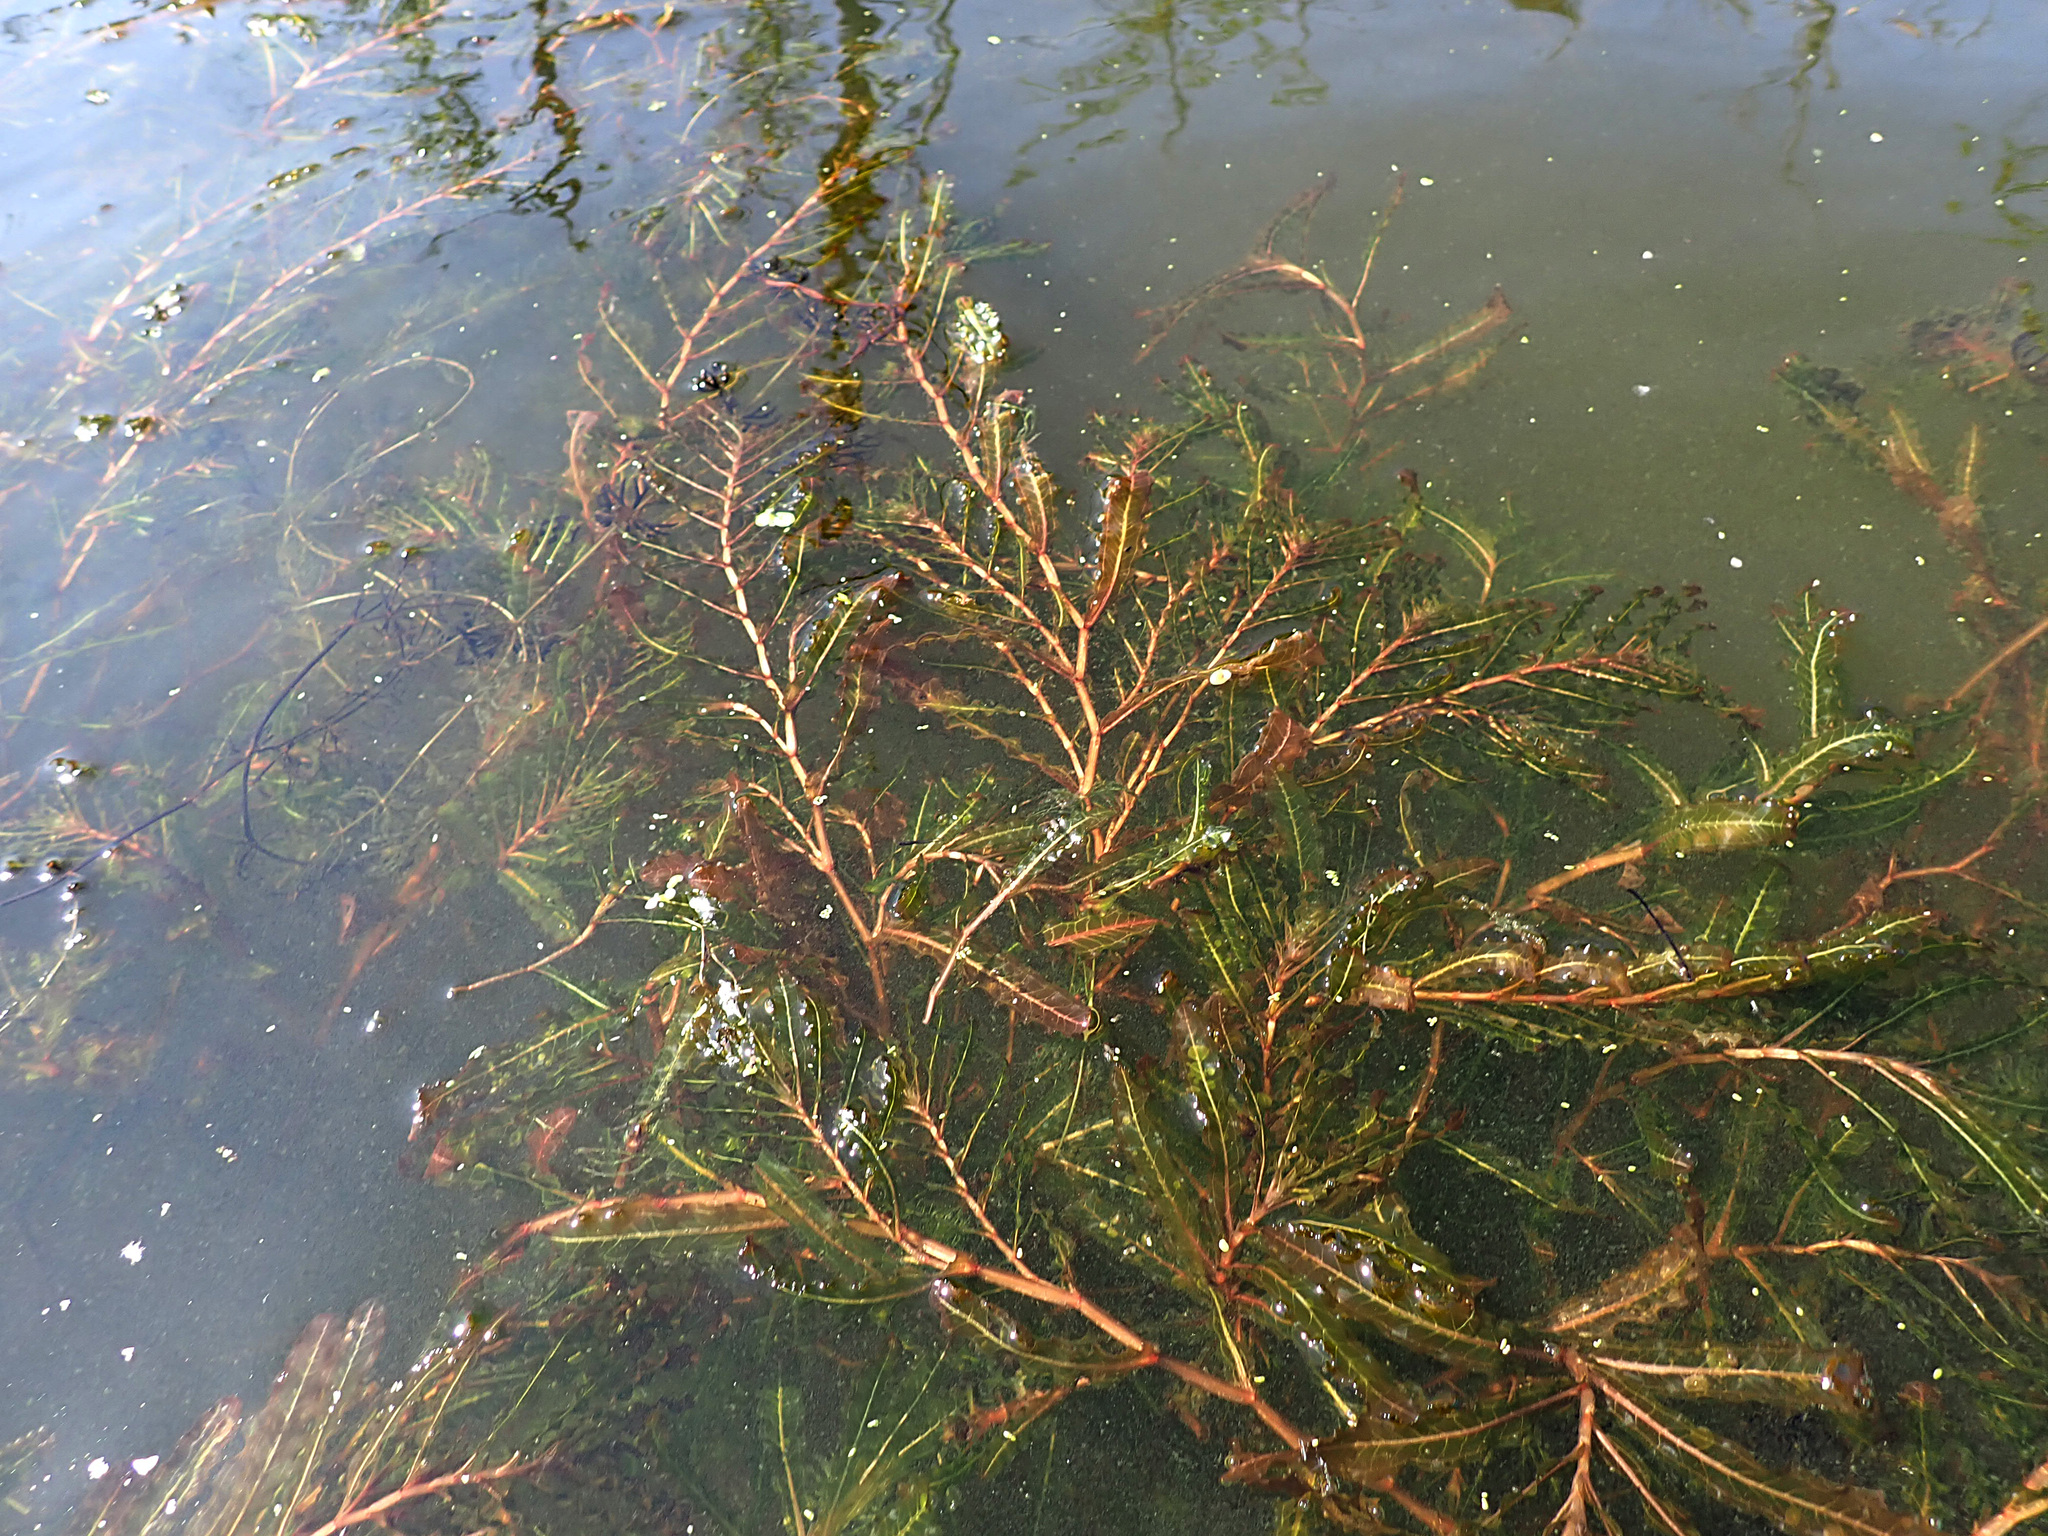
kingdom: Plantae
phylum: Tracheophyta
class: Liliopsida
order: Alismatales
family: Potamogetonaceae
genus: Potamogeton
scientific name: Potamogeton crispus
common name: Curled pondweed
